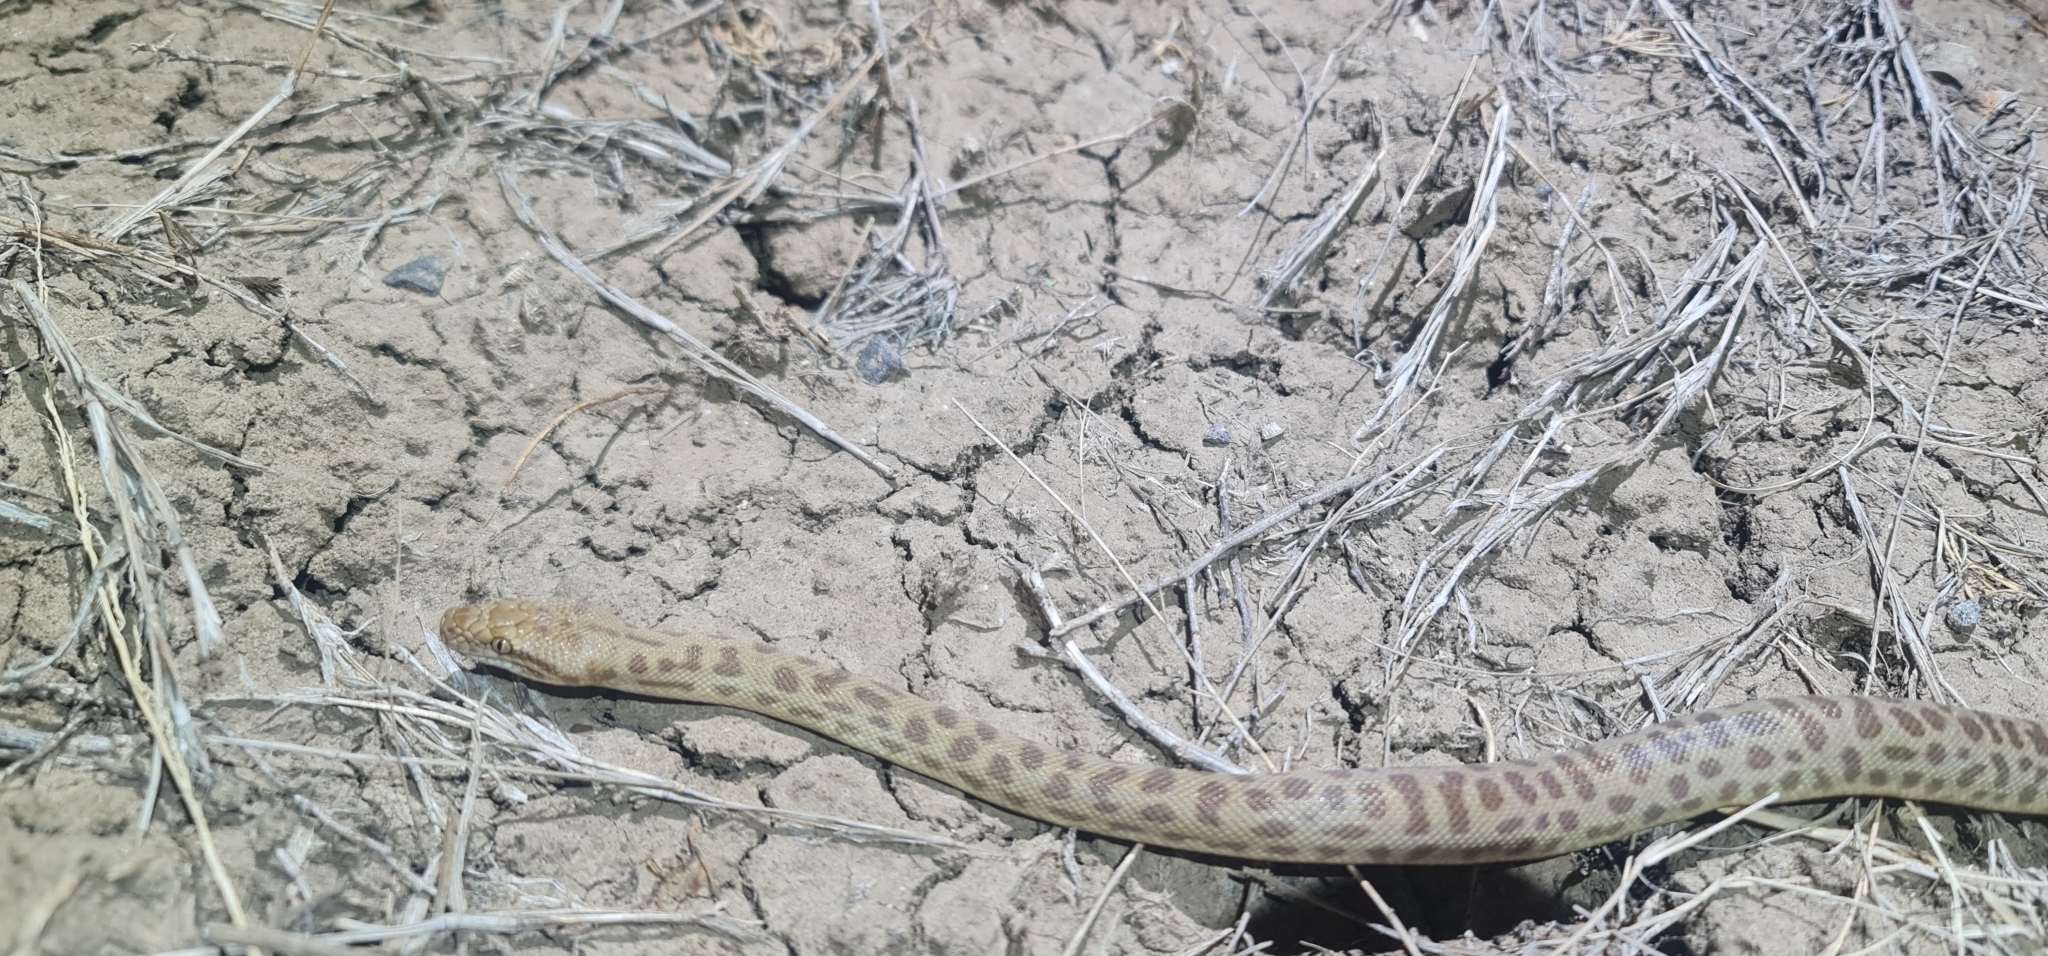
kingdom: Animalia
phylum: Chordata
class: Squamata
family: Pythonidae
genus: Antaresia
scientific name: Antaresia childreni
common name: Children's python
